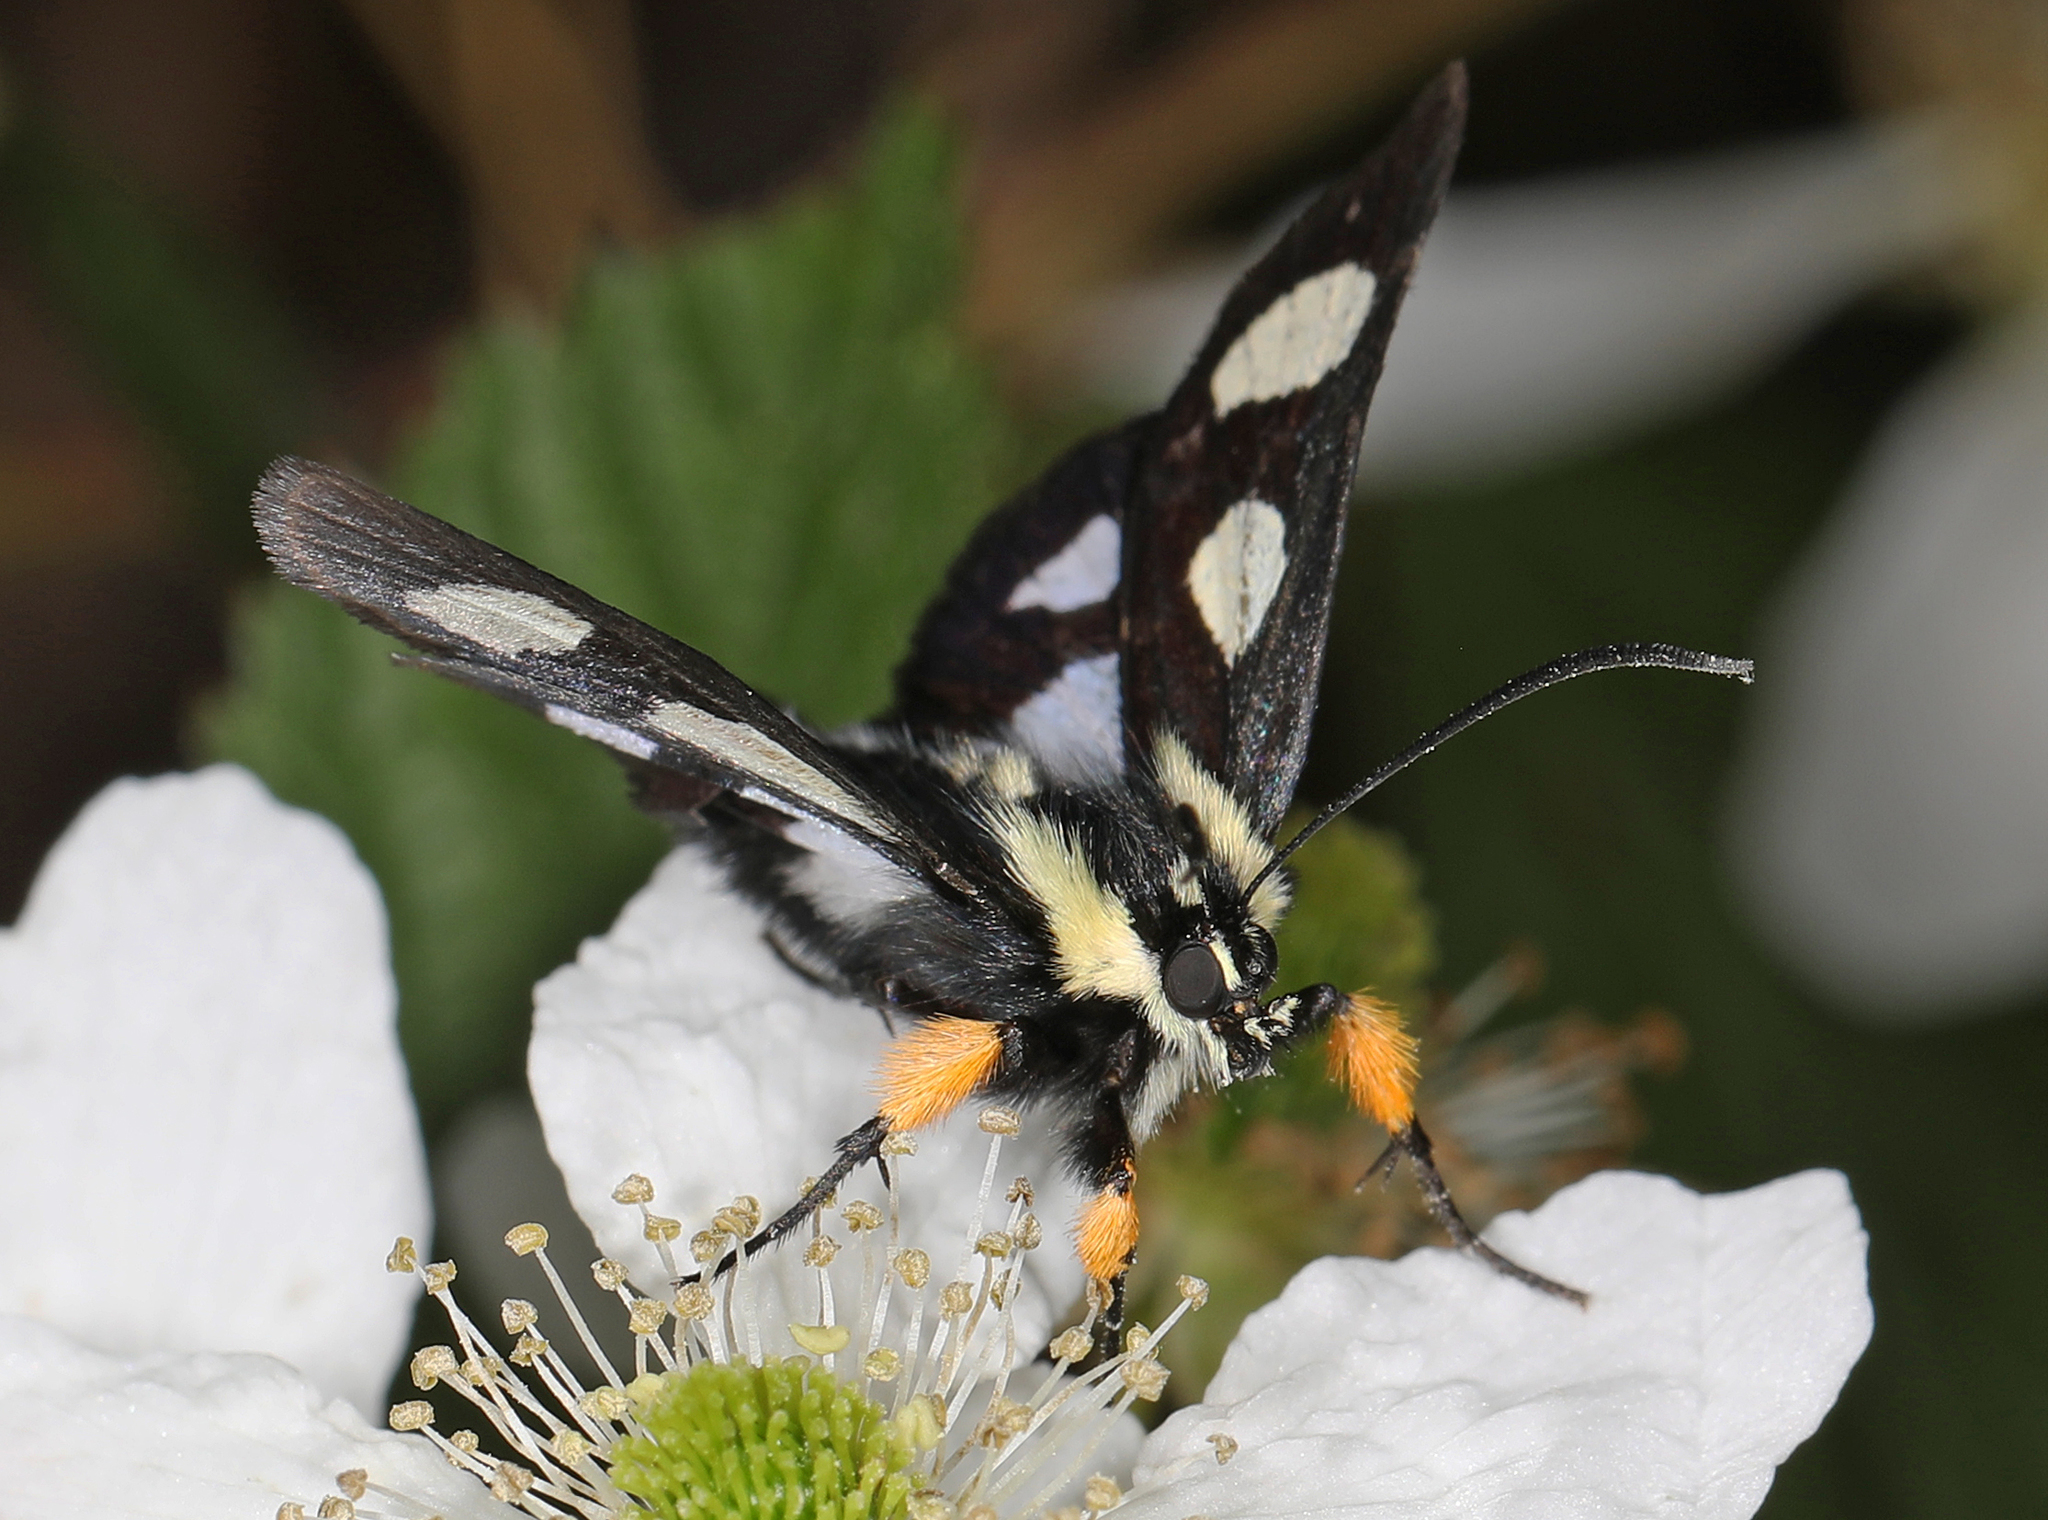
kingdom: Animalia
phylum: Arthropoda
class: Insecta
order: Lepidoptera
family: Noctuidae
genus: Alypia
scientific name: Alypia octomaculata
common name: Eight-spotted forester
